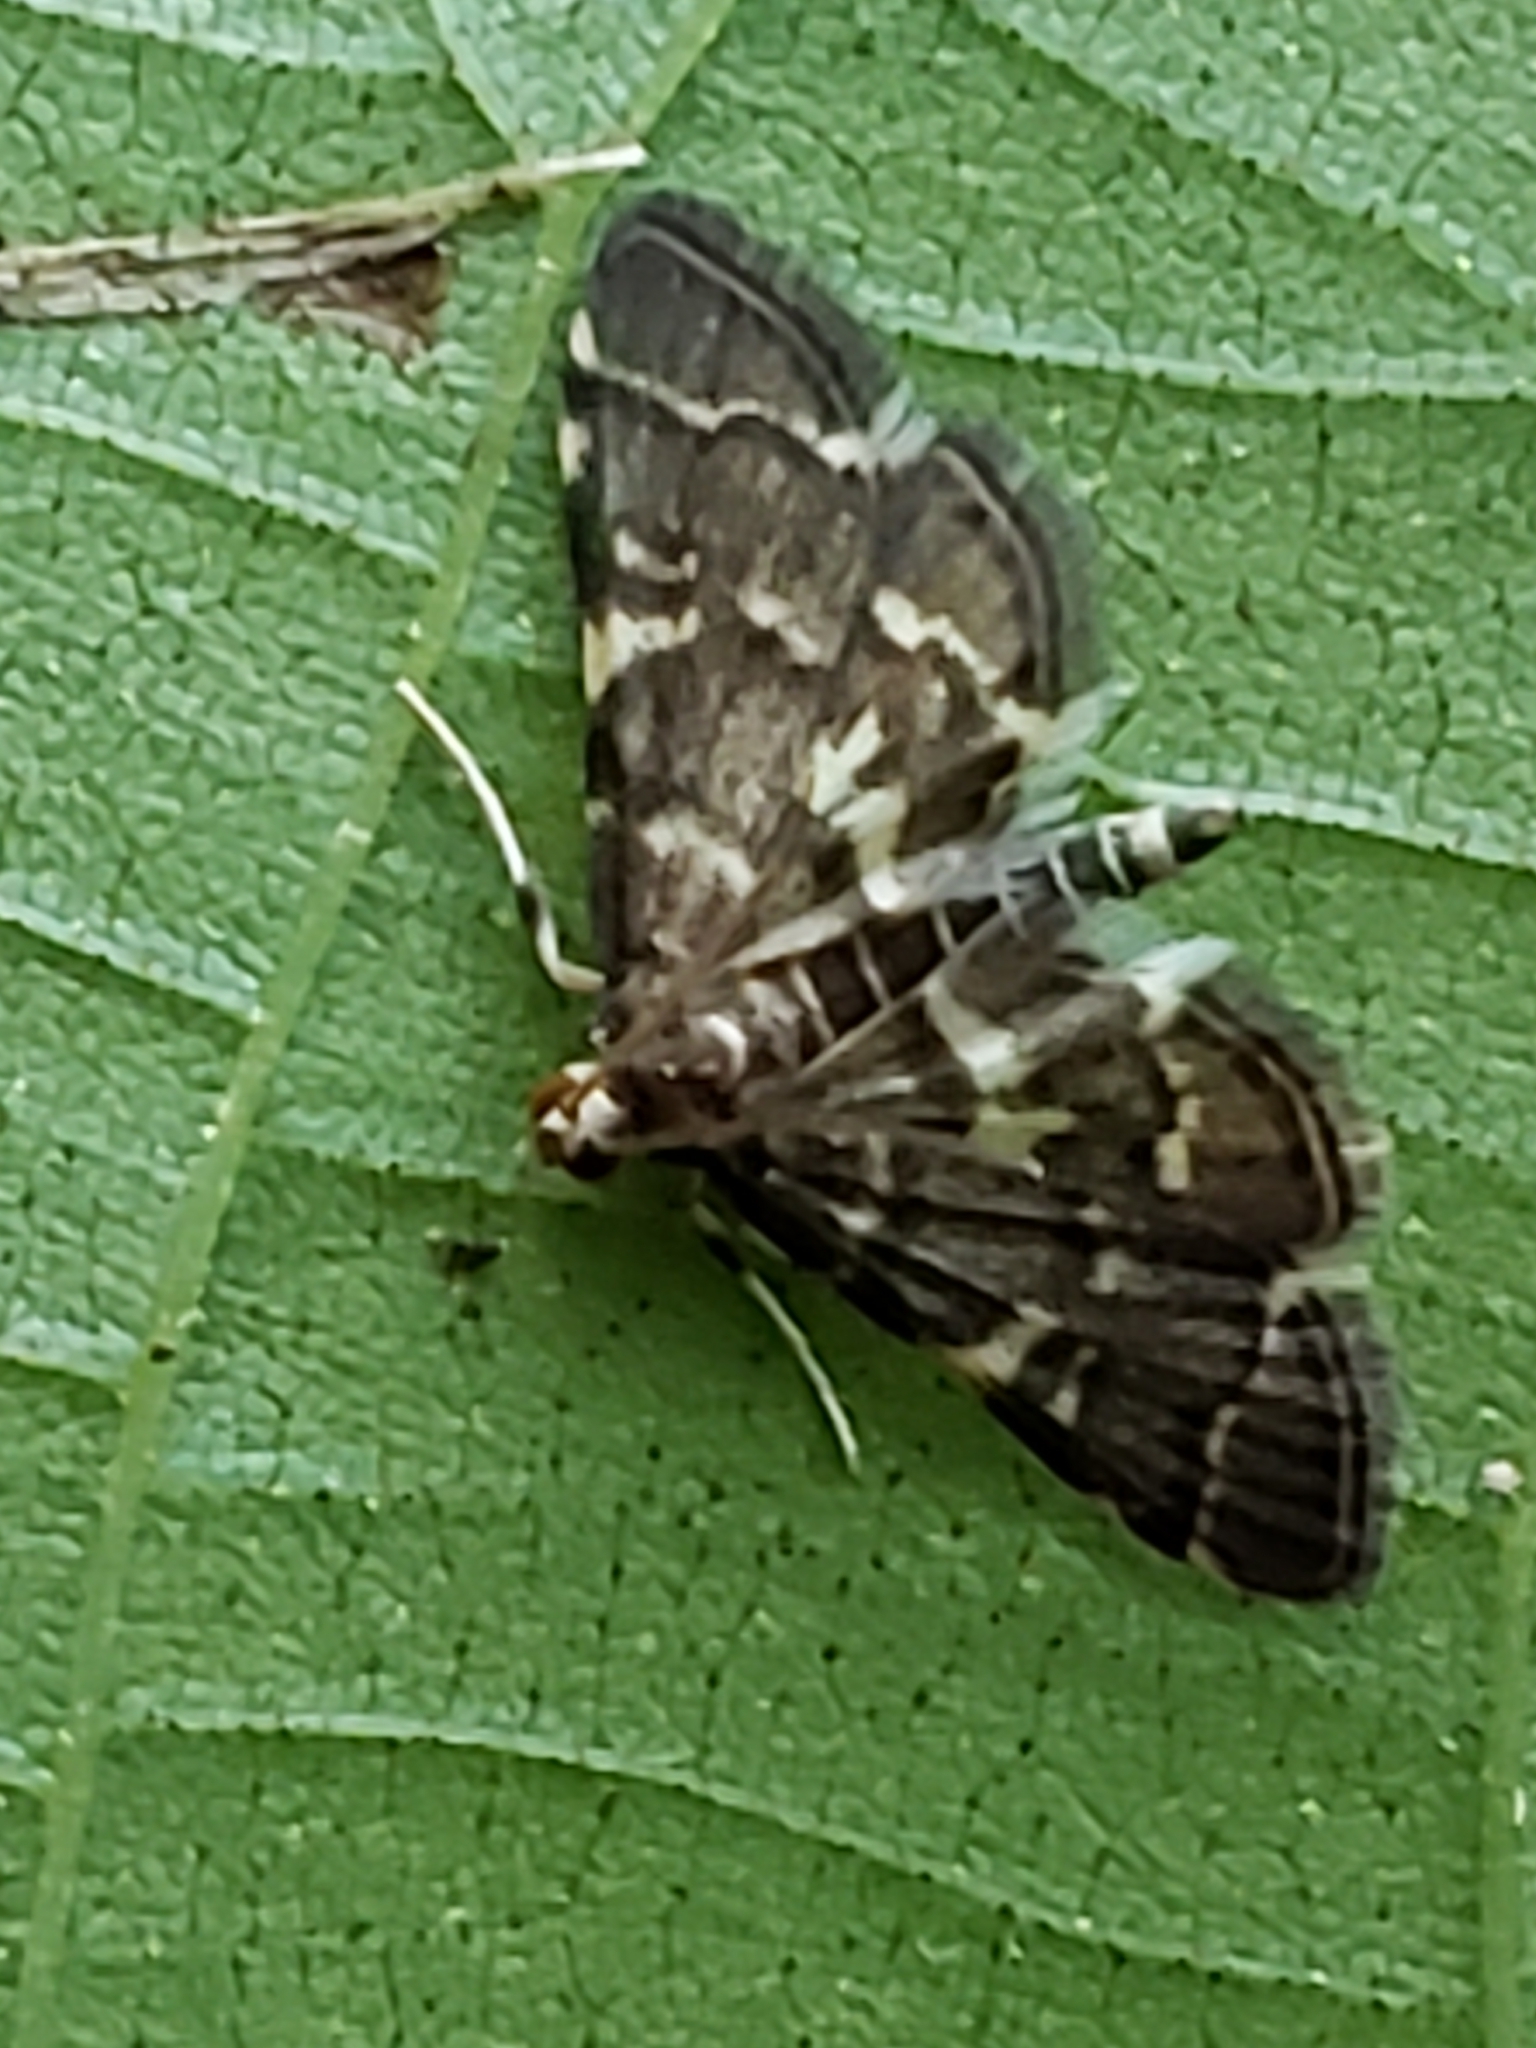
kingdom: Animalia
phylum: Arthropoda
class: Insecta
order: Lepidoptera
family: Crambidae
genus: Anageshna
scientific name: Anageshna primordialis
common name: Yellow-spotted webworm moth
